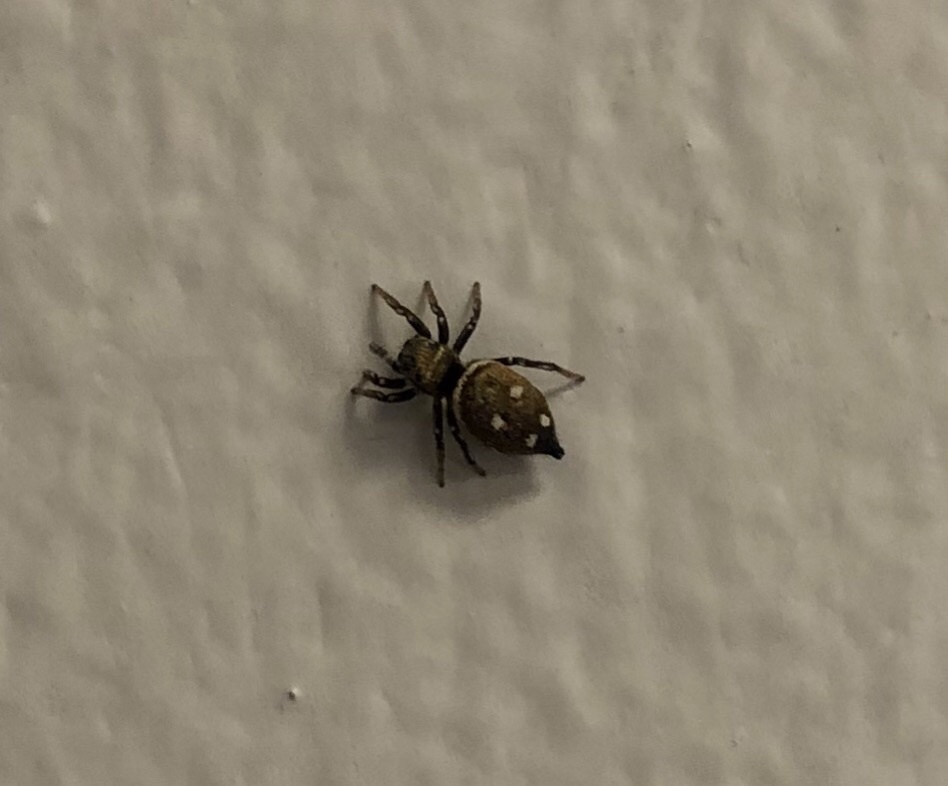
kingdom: Animalia
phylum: Arthropoda
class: Arachnida
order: Araneae
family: Salticidae
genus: Heliophanus
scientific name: Heliophanus kochii
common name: Sun jumping spider
